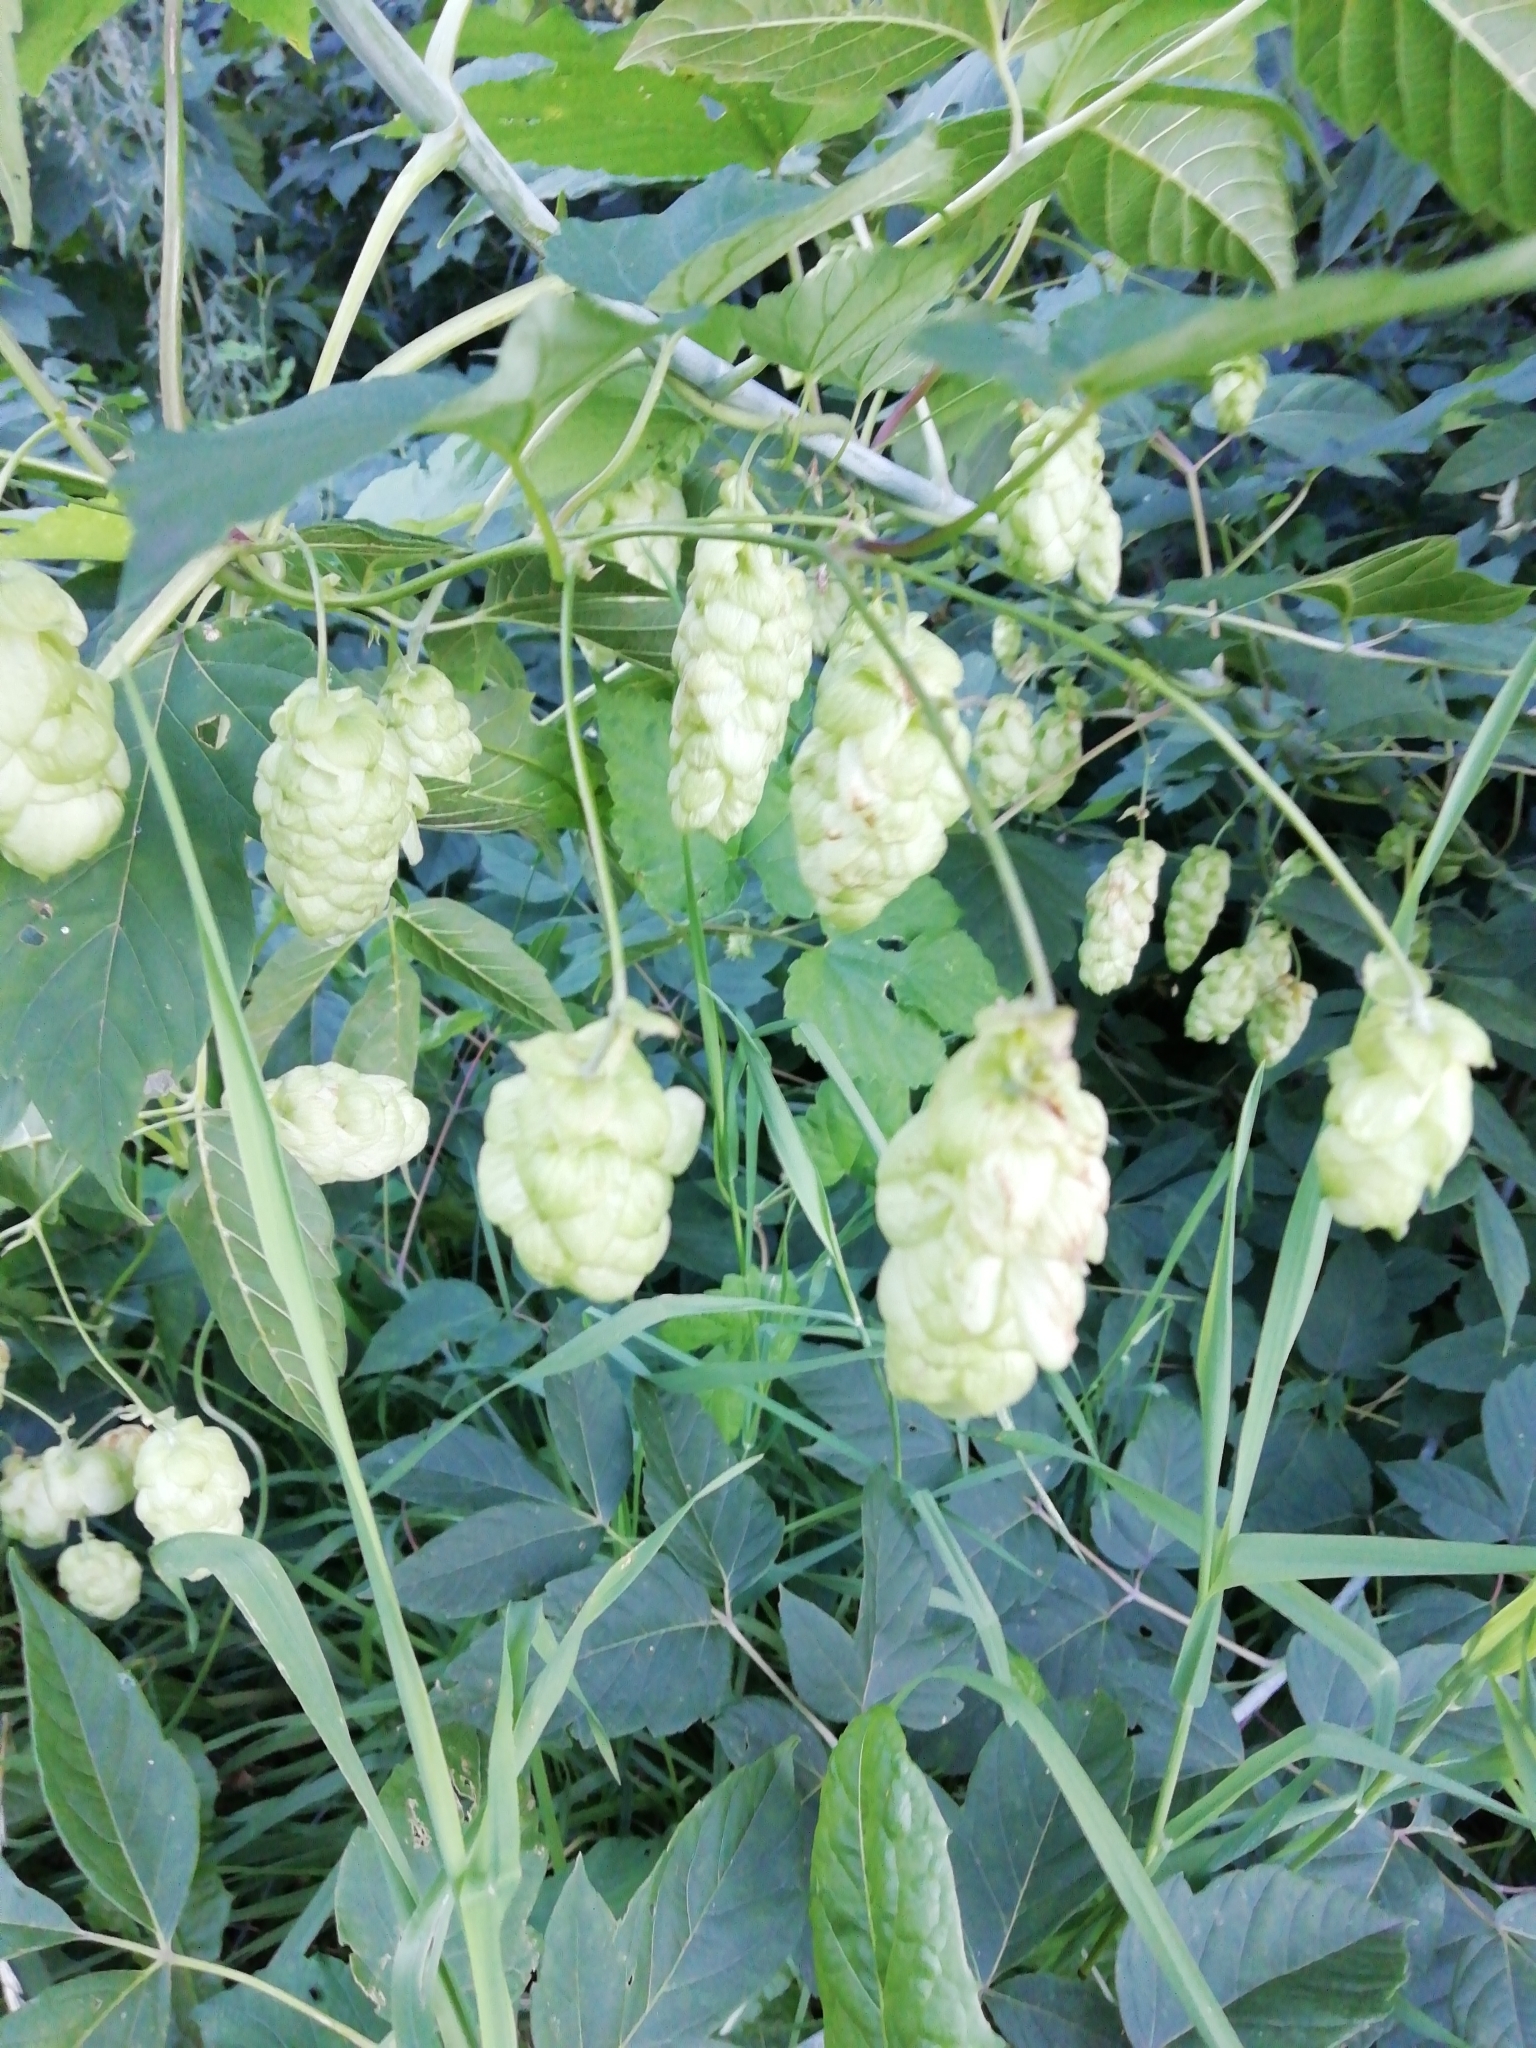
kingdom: Plantae
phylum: Tracheophyta
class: Magnoliopsida
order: Rosales
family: Cannabaceae
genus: Humulus
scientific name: Humulus lupulus
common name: Hop
